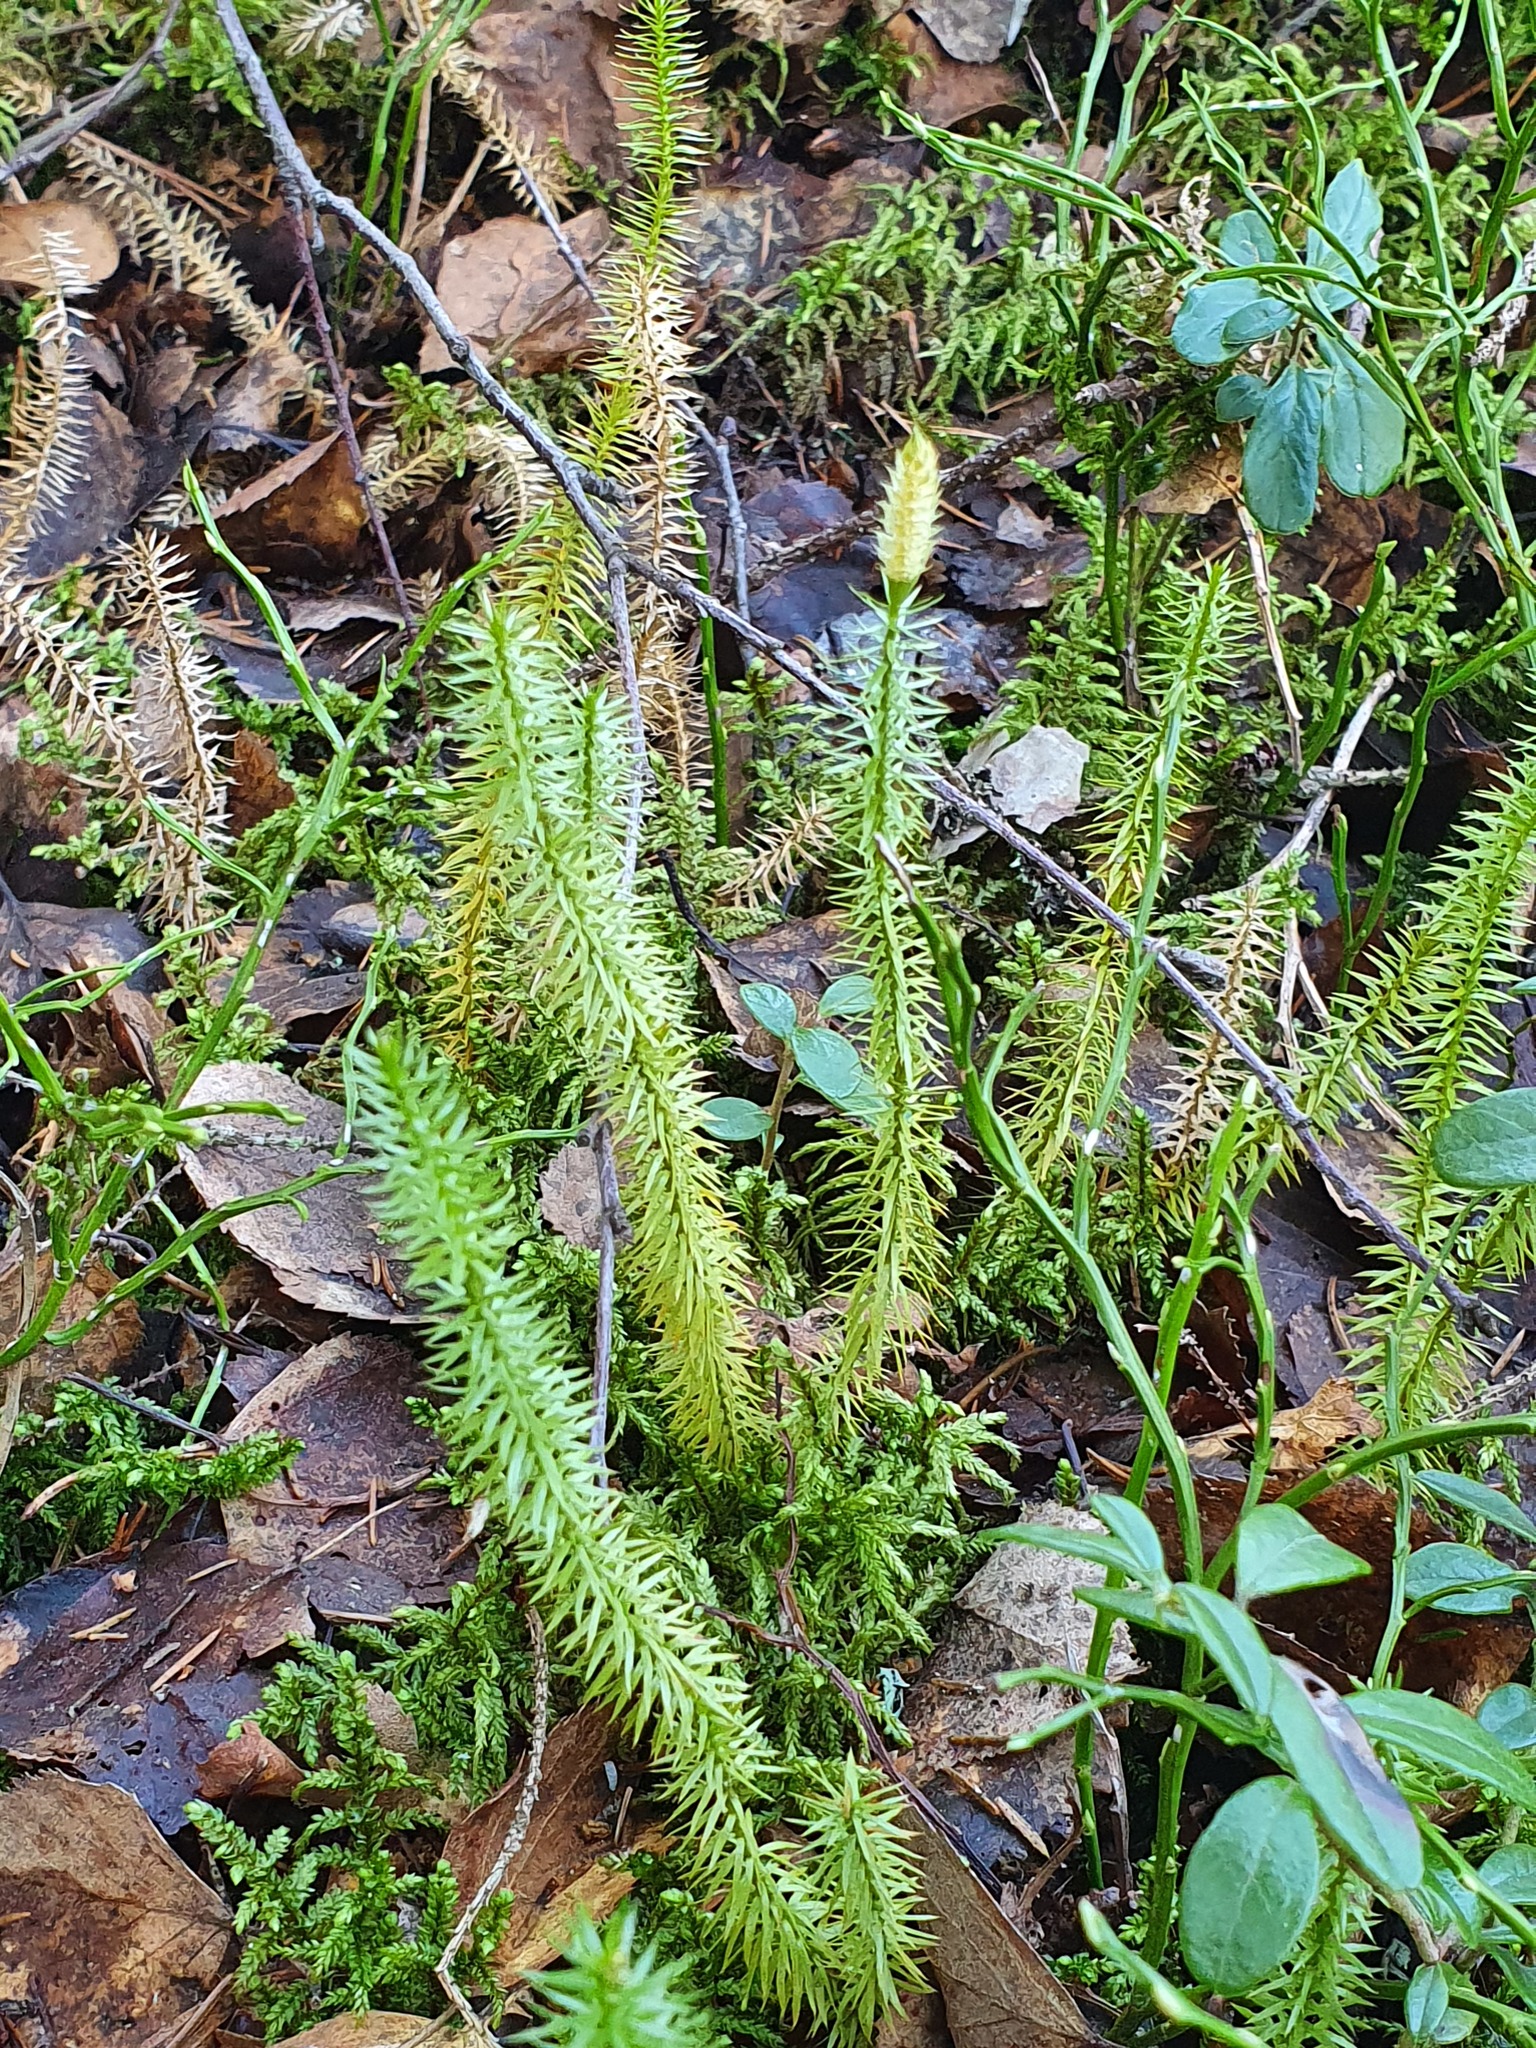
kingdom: Plantae
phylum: Tracheophyta
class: Lycopodiopsida
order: Lycopodiales
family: Lycopodiaceae
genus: Spinulum
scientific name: Spinulum annotinum
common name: Interrupted club-moss
